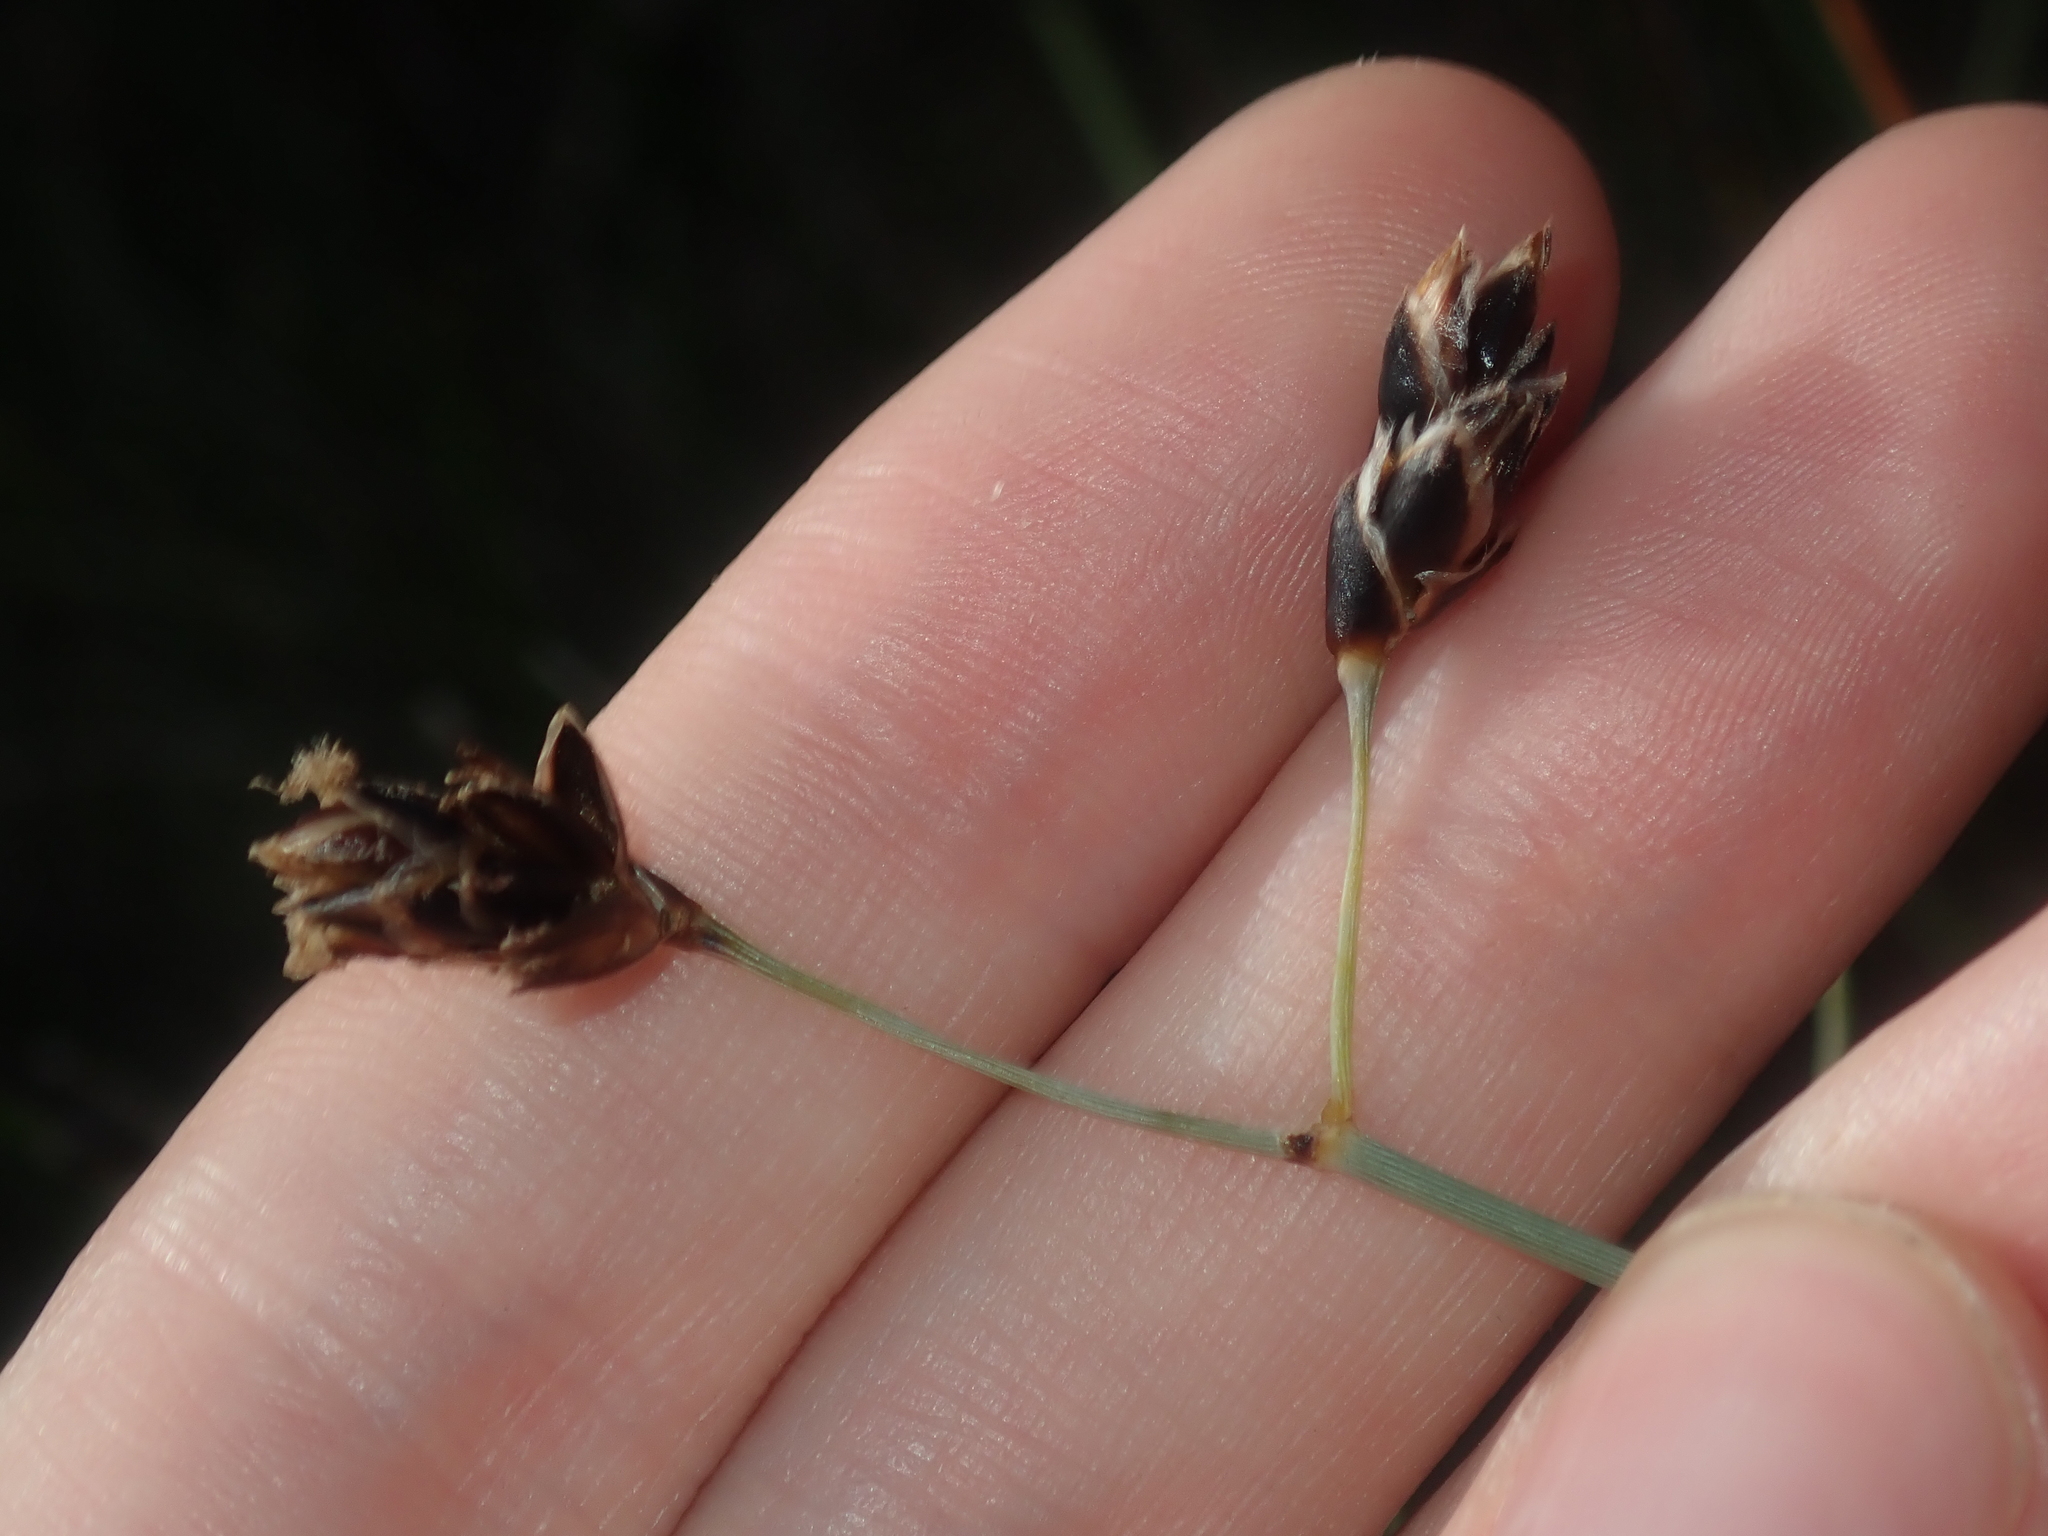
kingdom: Plantae
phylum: Tracheophyta
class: Liliopsida
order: Poales
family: Ecdeiocoleaceae
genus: Georgeantha
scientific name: Georgeantha hexandra
